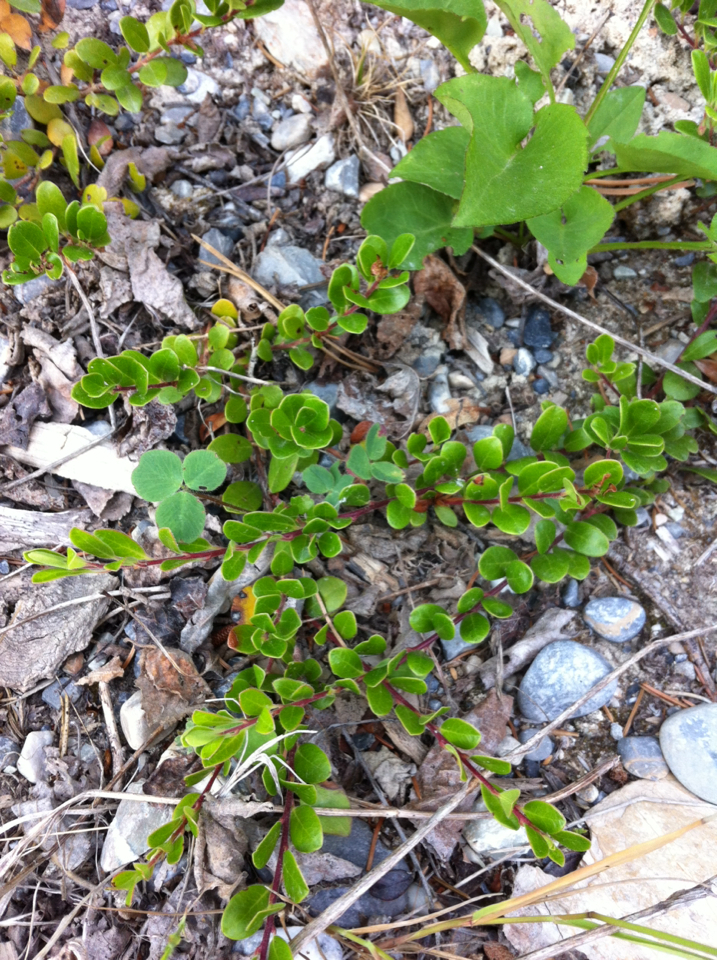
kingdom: Plantae
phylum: Tracheophyta
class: Magnoliopsida
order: Ericales
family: Ericaceae
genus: Arctostaphylos
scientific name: Arctostaphylos uva-ursi
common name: Bearberry
